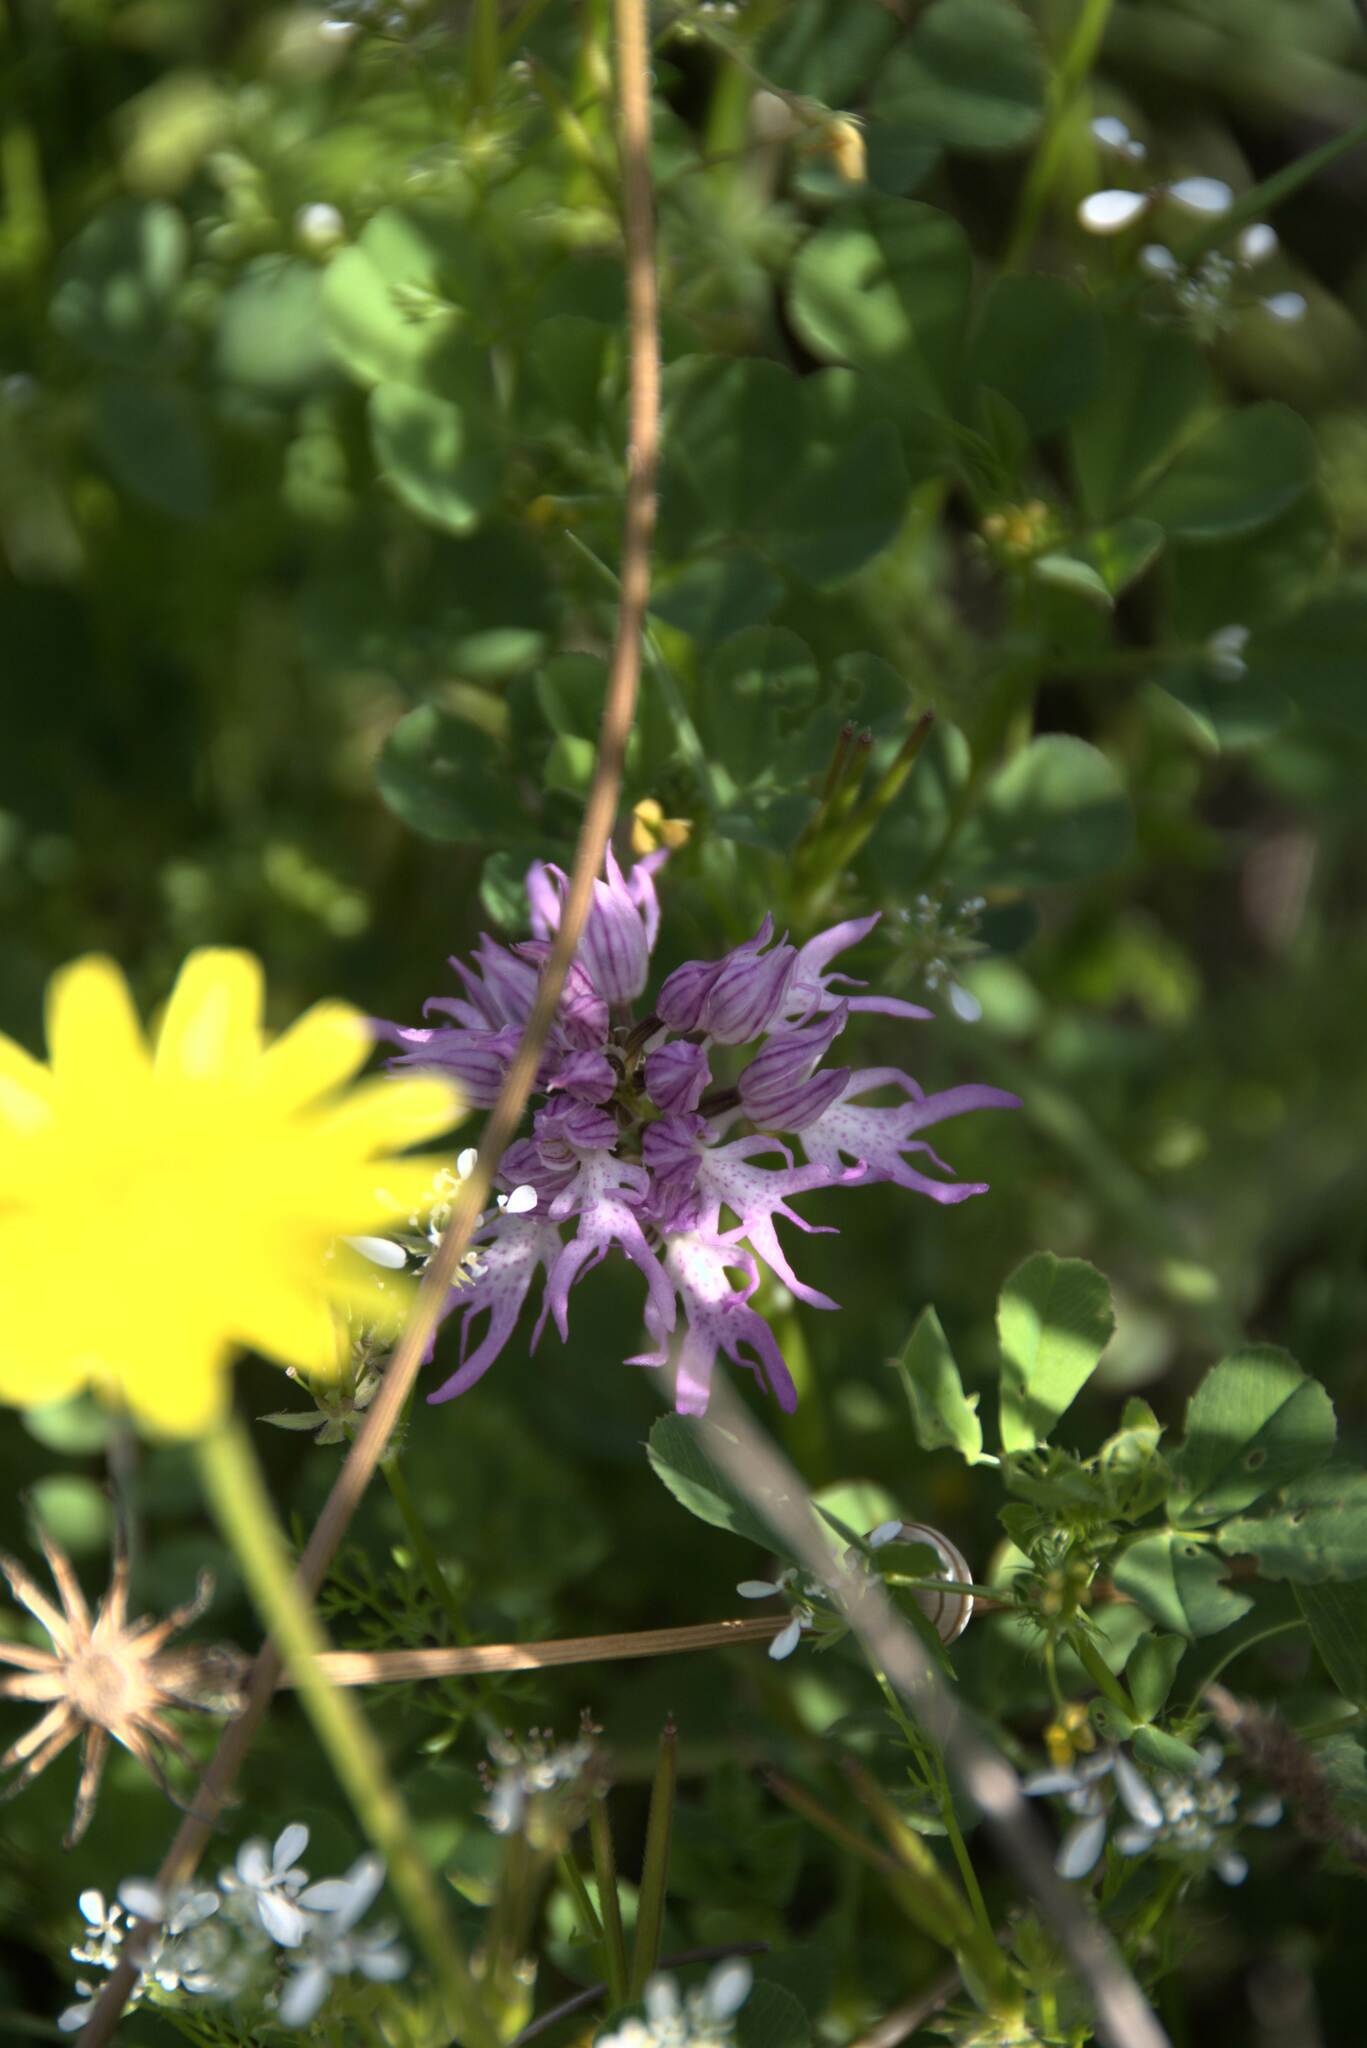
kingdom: Plantae
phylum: Tracheophyta
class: Liliopsida
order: Asparagales
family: Orchidaceae
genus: Orchis
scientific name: Orchis italica
